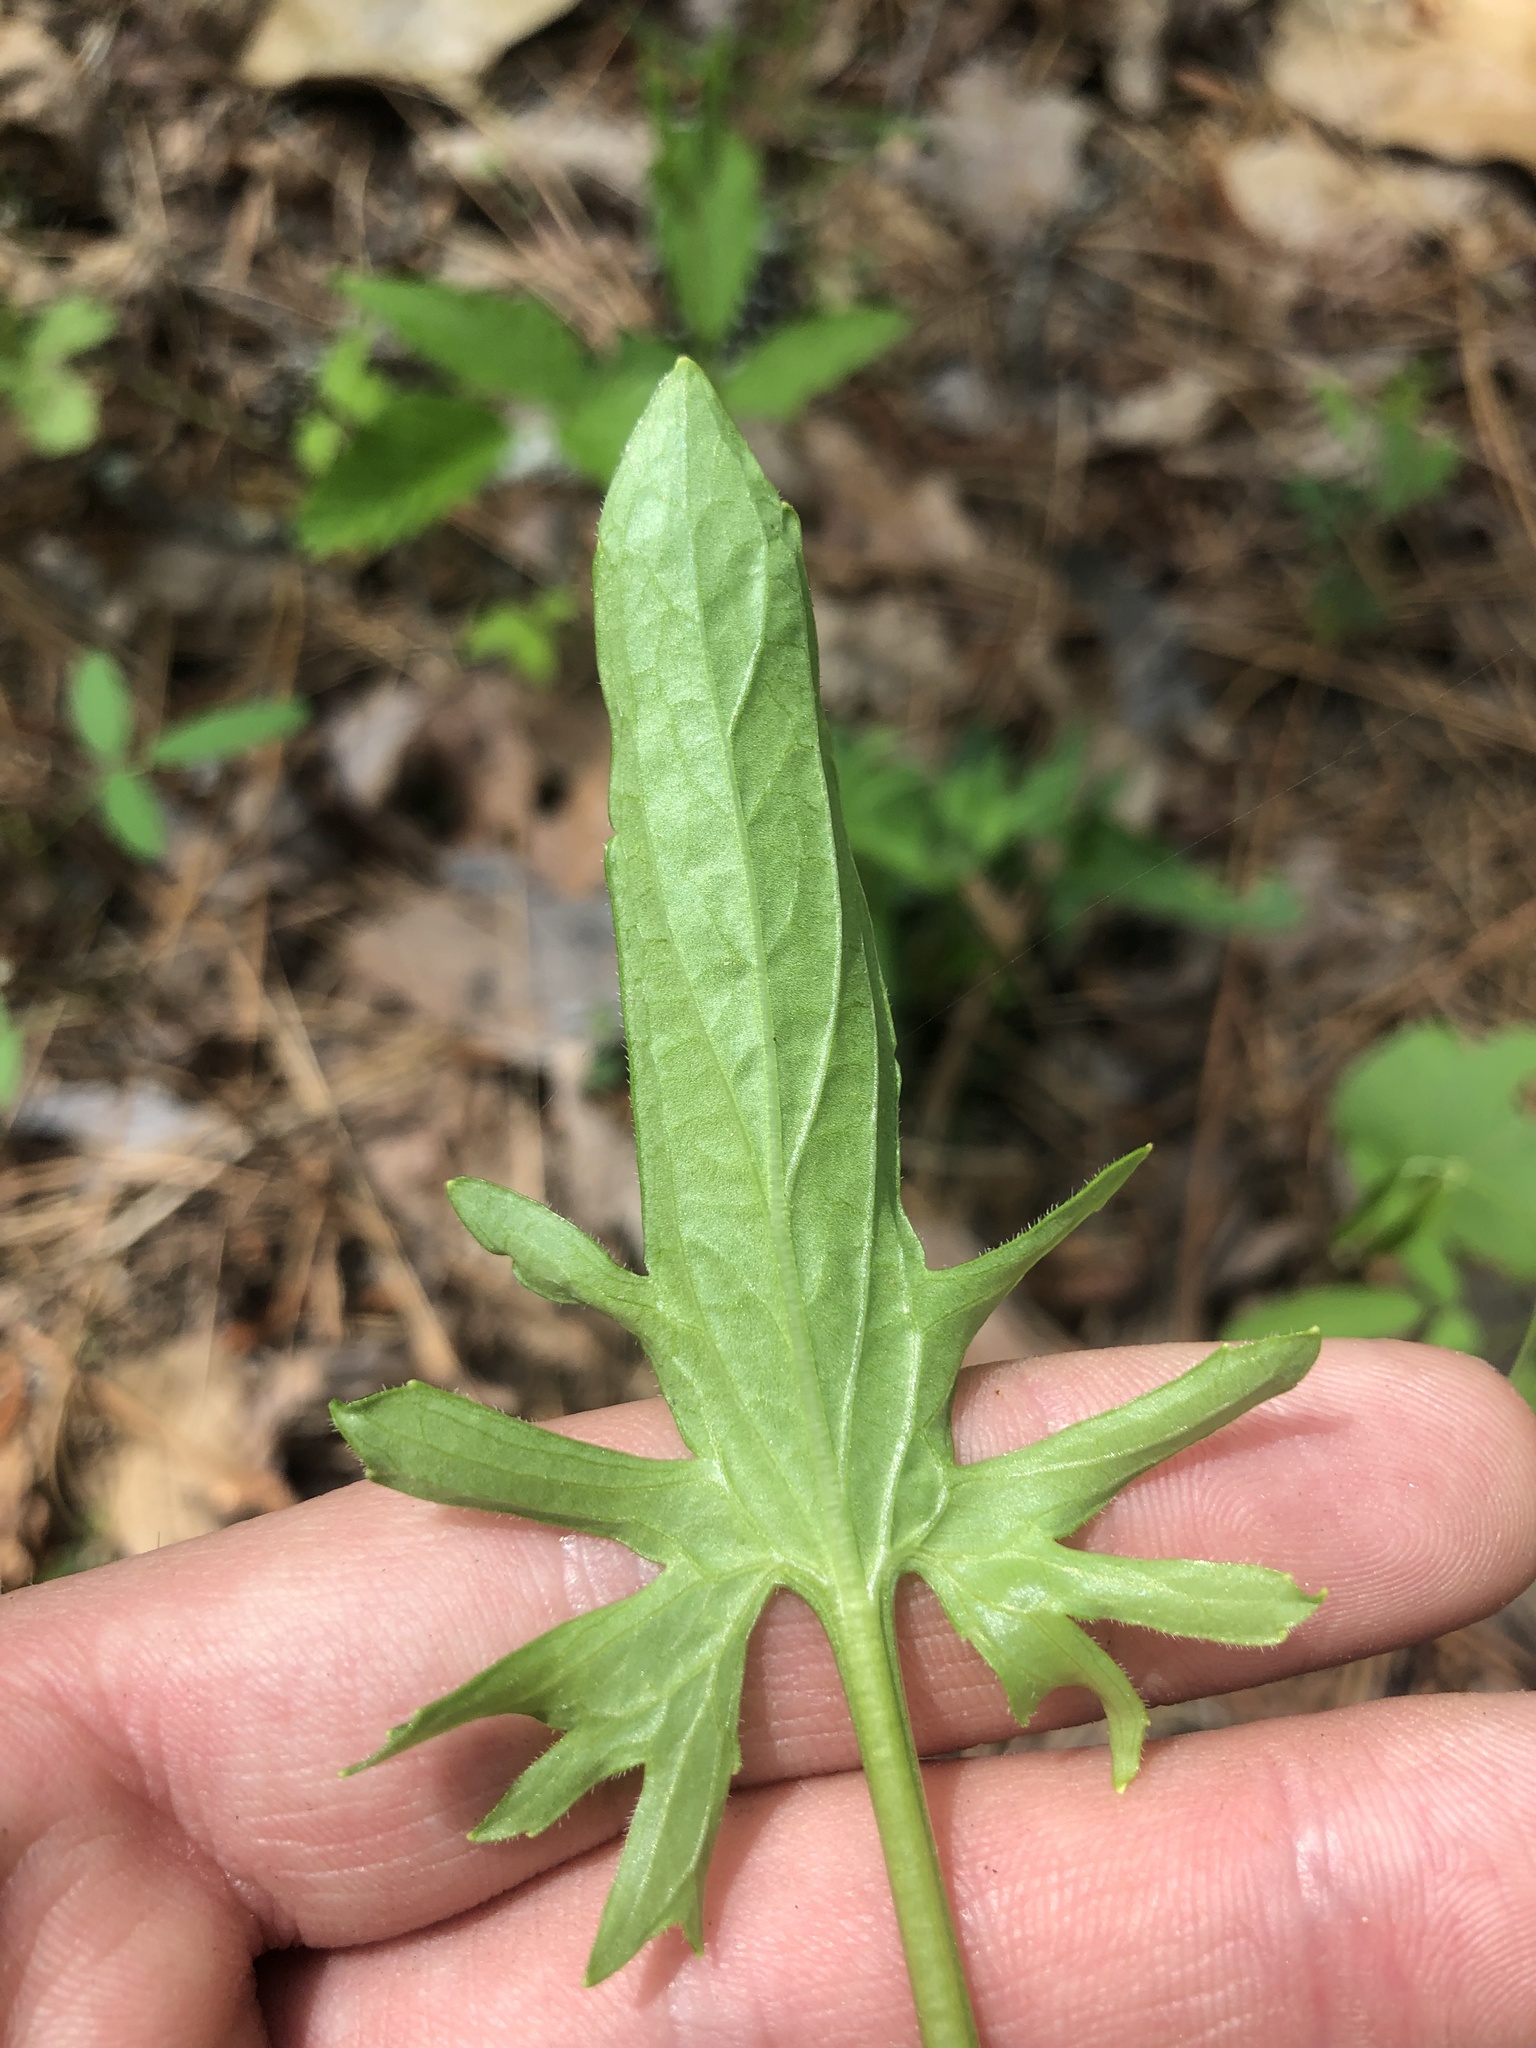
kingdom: Plantae
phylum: Tracheophyta
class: Magnoliopsida
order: Malpighiales
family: Violaceae
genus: Viola
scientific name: Viola emarginata
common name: Triangle-leaved violet
